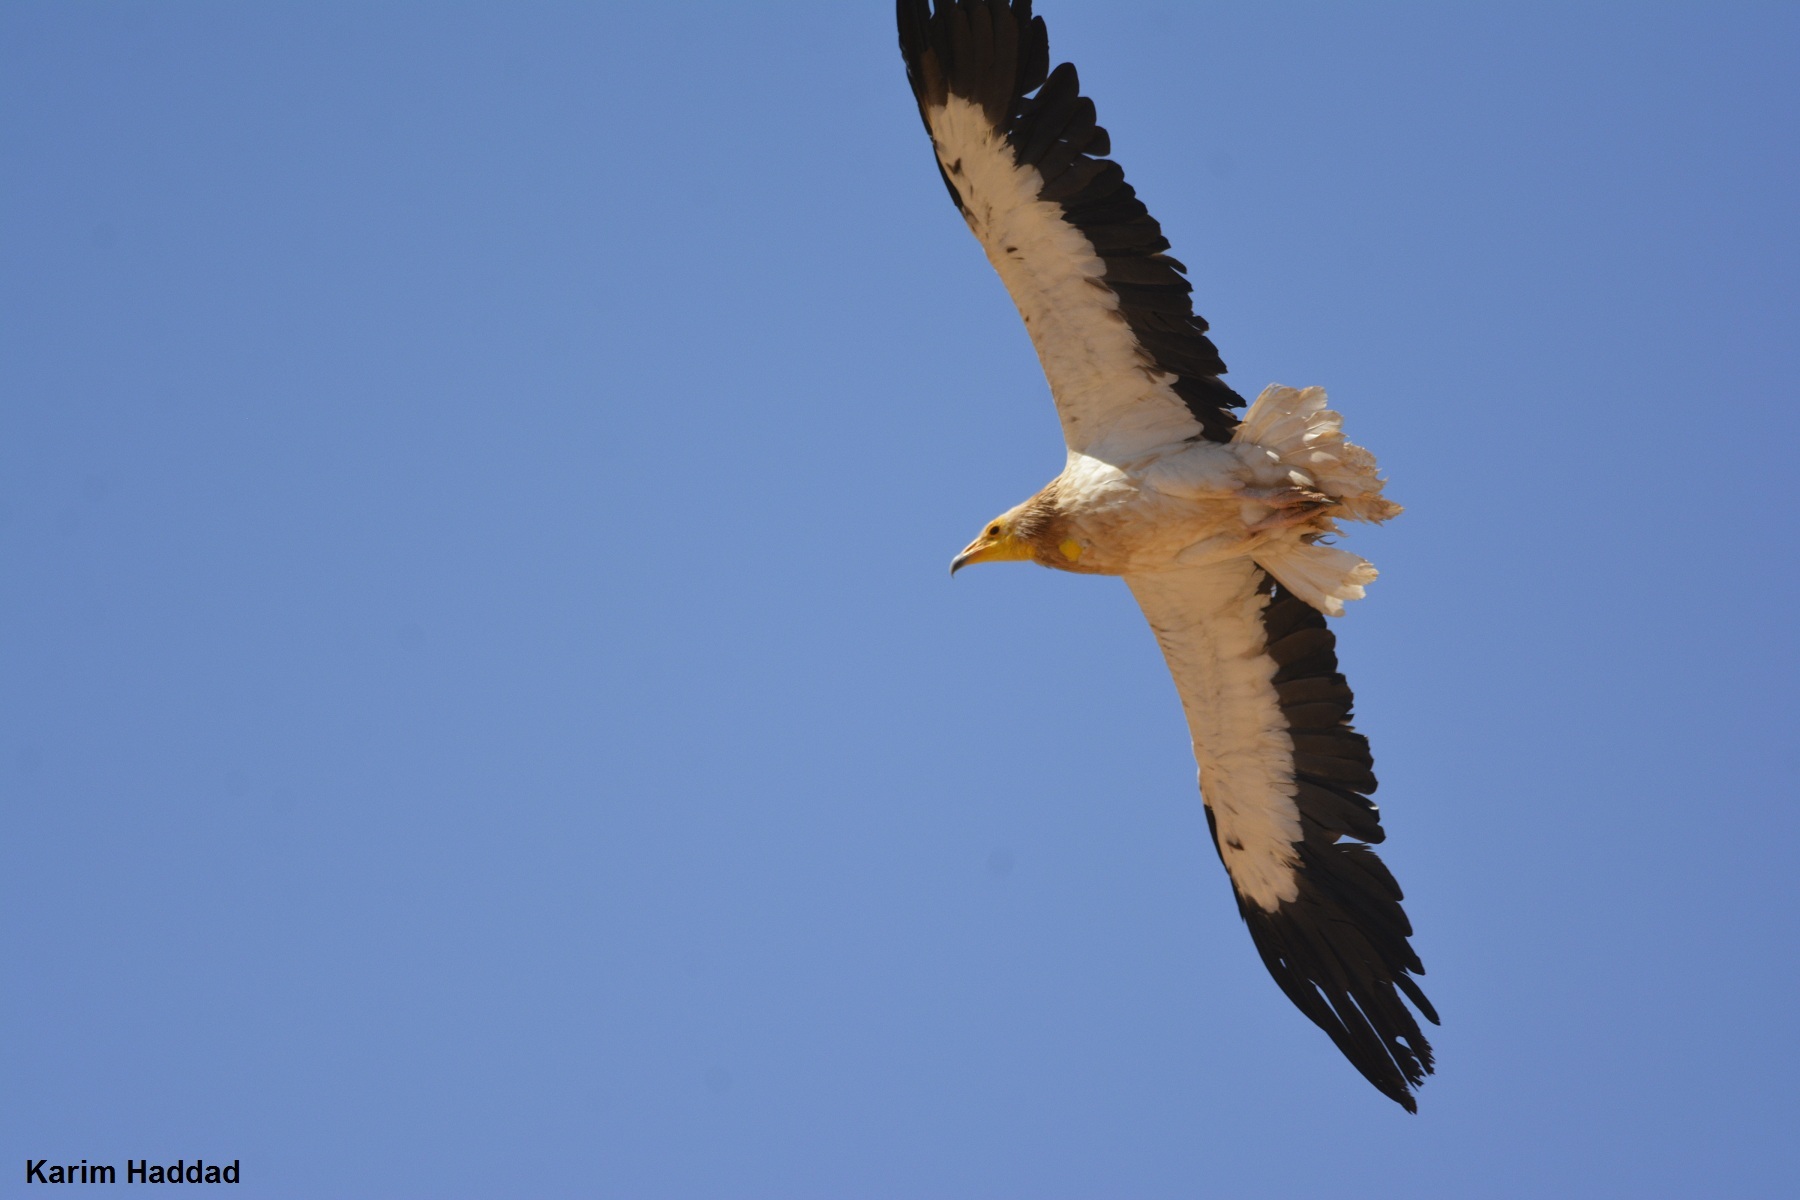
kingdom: Animalia
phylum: Chordata
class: Aves
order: Accipitriformes
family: Accipitridae
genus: Neophron
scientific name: Neophron percnopterus
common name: Egyptian vulture
